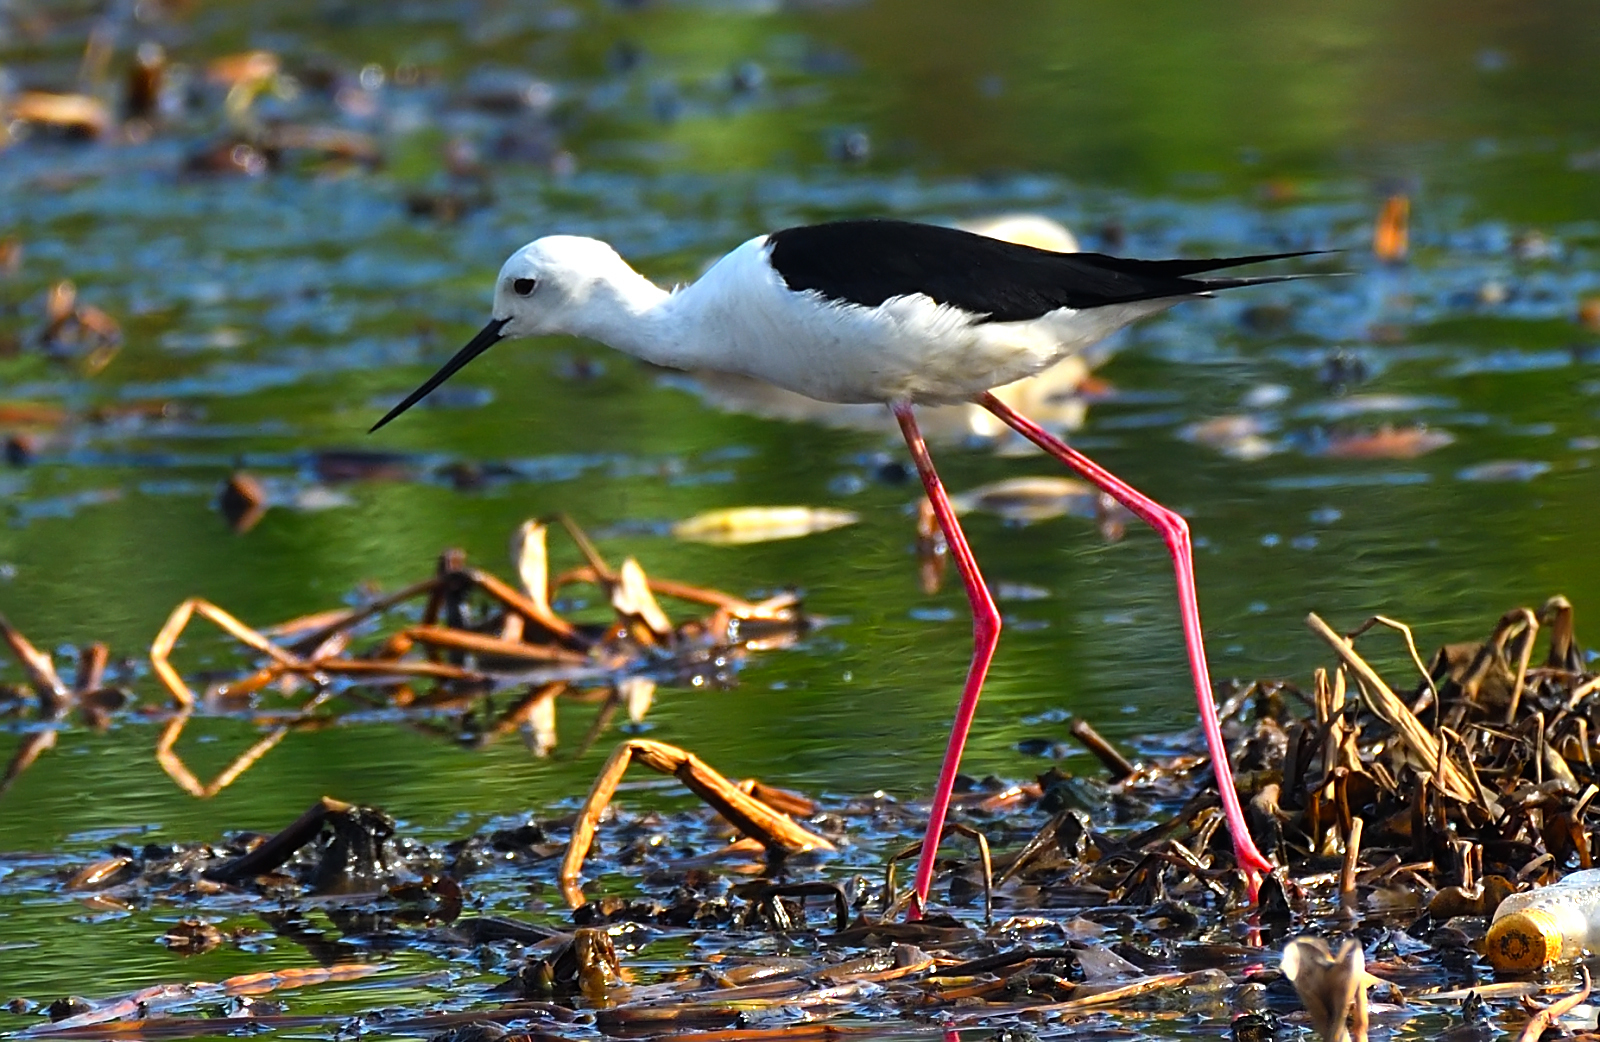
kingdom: Animalia
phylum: Chordata
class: Aves
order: Charadriiformes
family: Recurvirostridae
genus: Himantopus
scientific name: Himantopus himantopus
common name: Black-winged stilt
